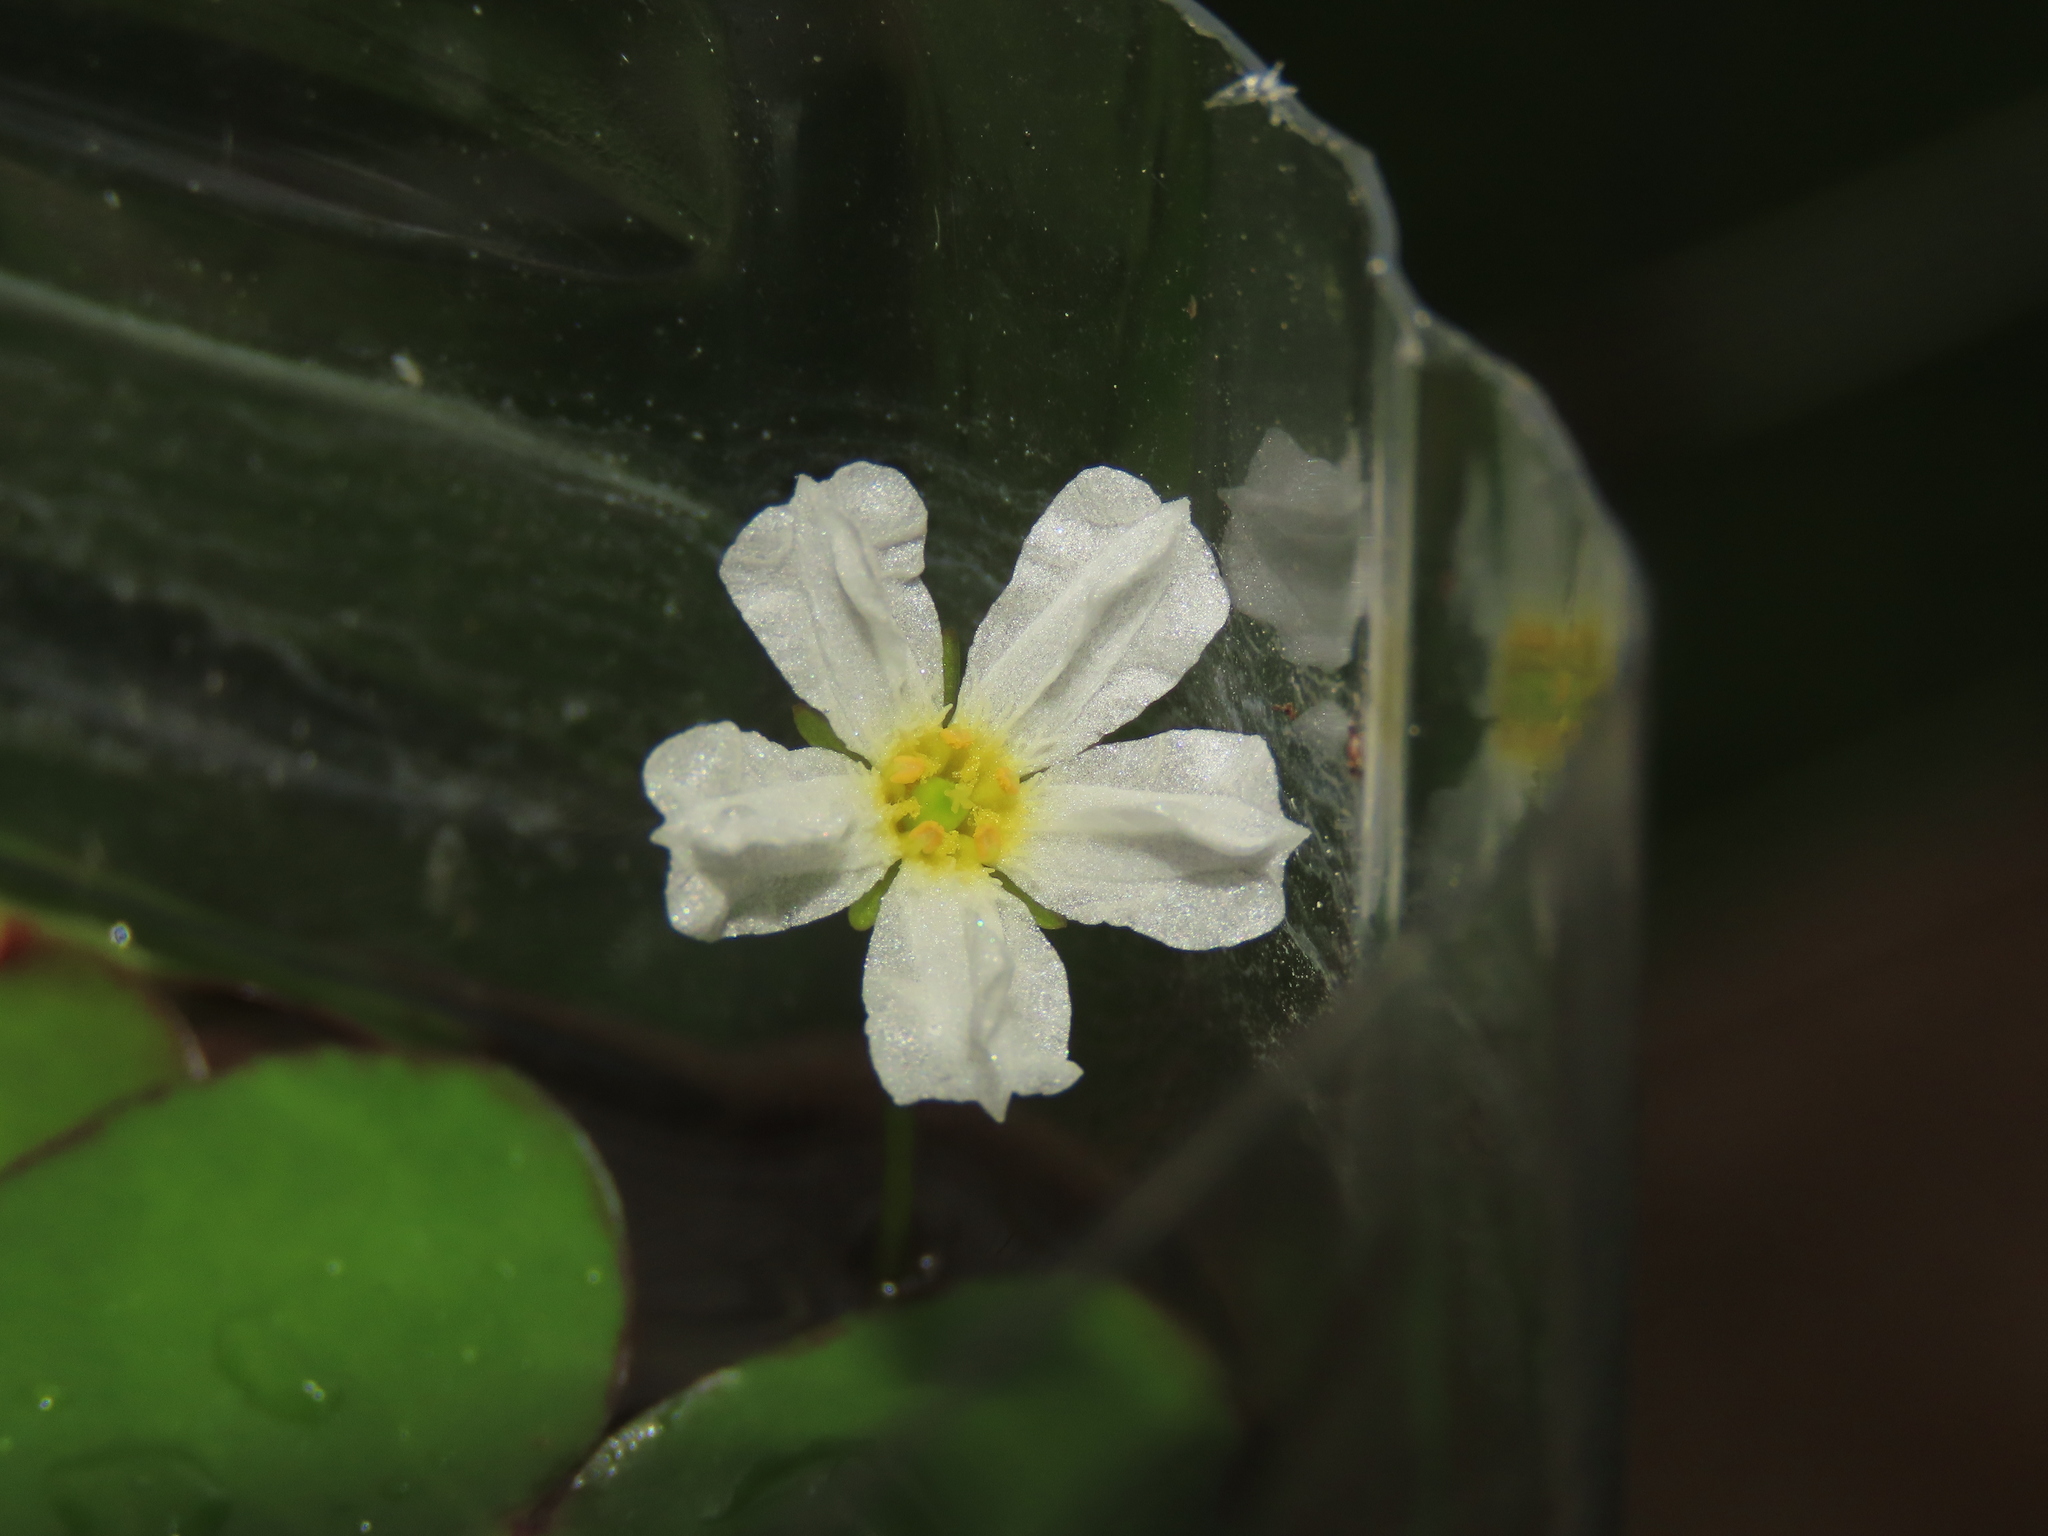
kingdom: Plantae
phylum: Tracheophyta
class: Magnoliopsida
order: Asterales
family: Menyanthaceae
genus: Nymphoides
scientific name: Nymphoides hydrophylla
